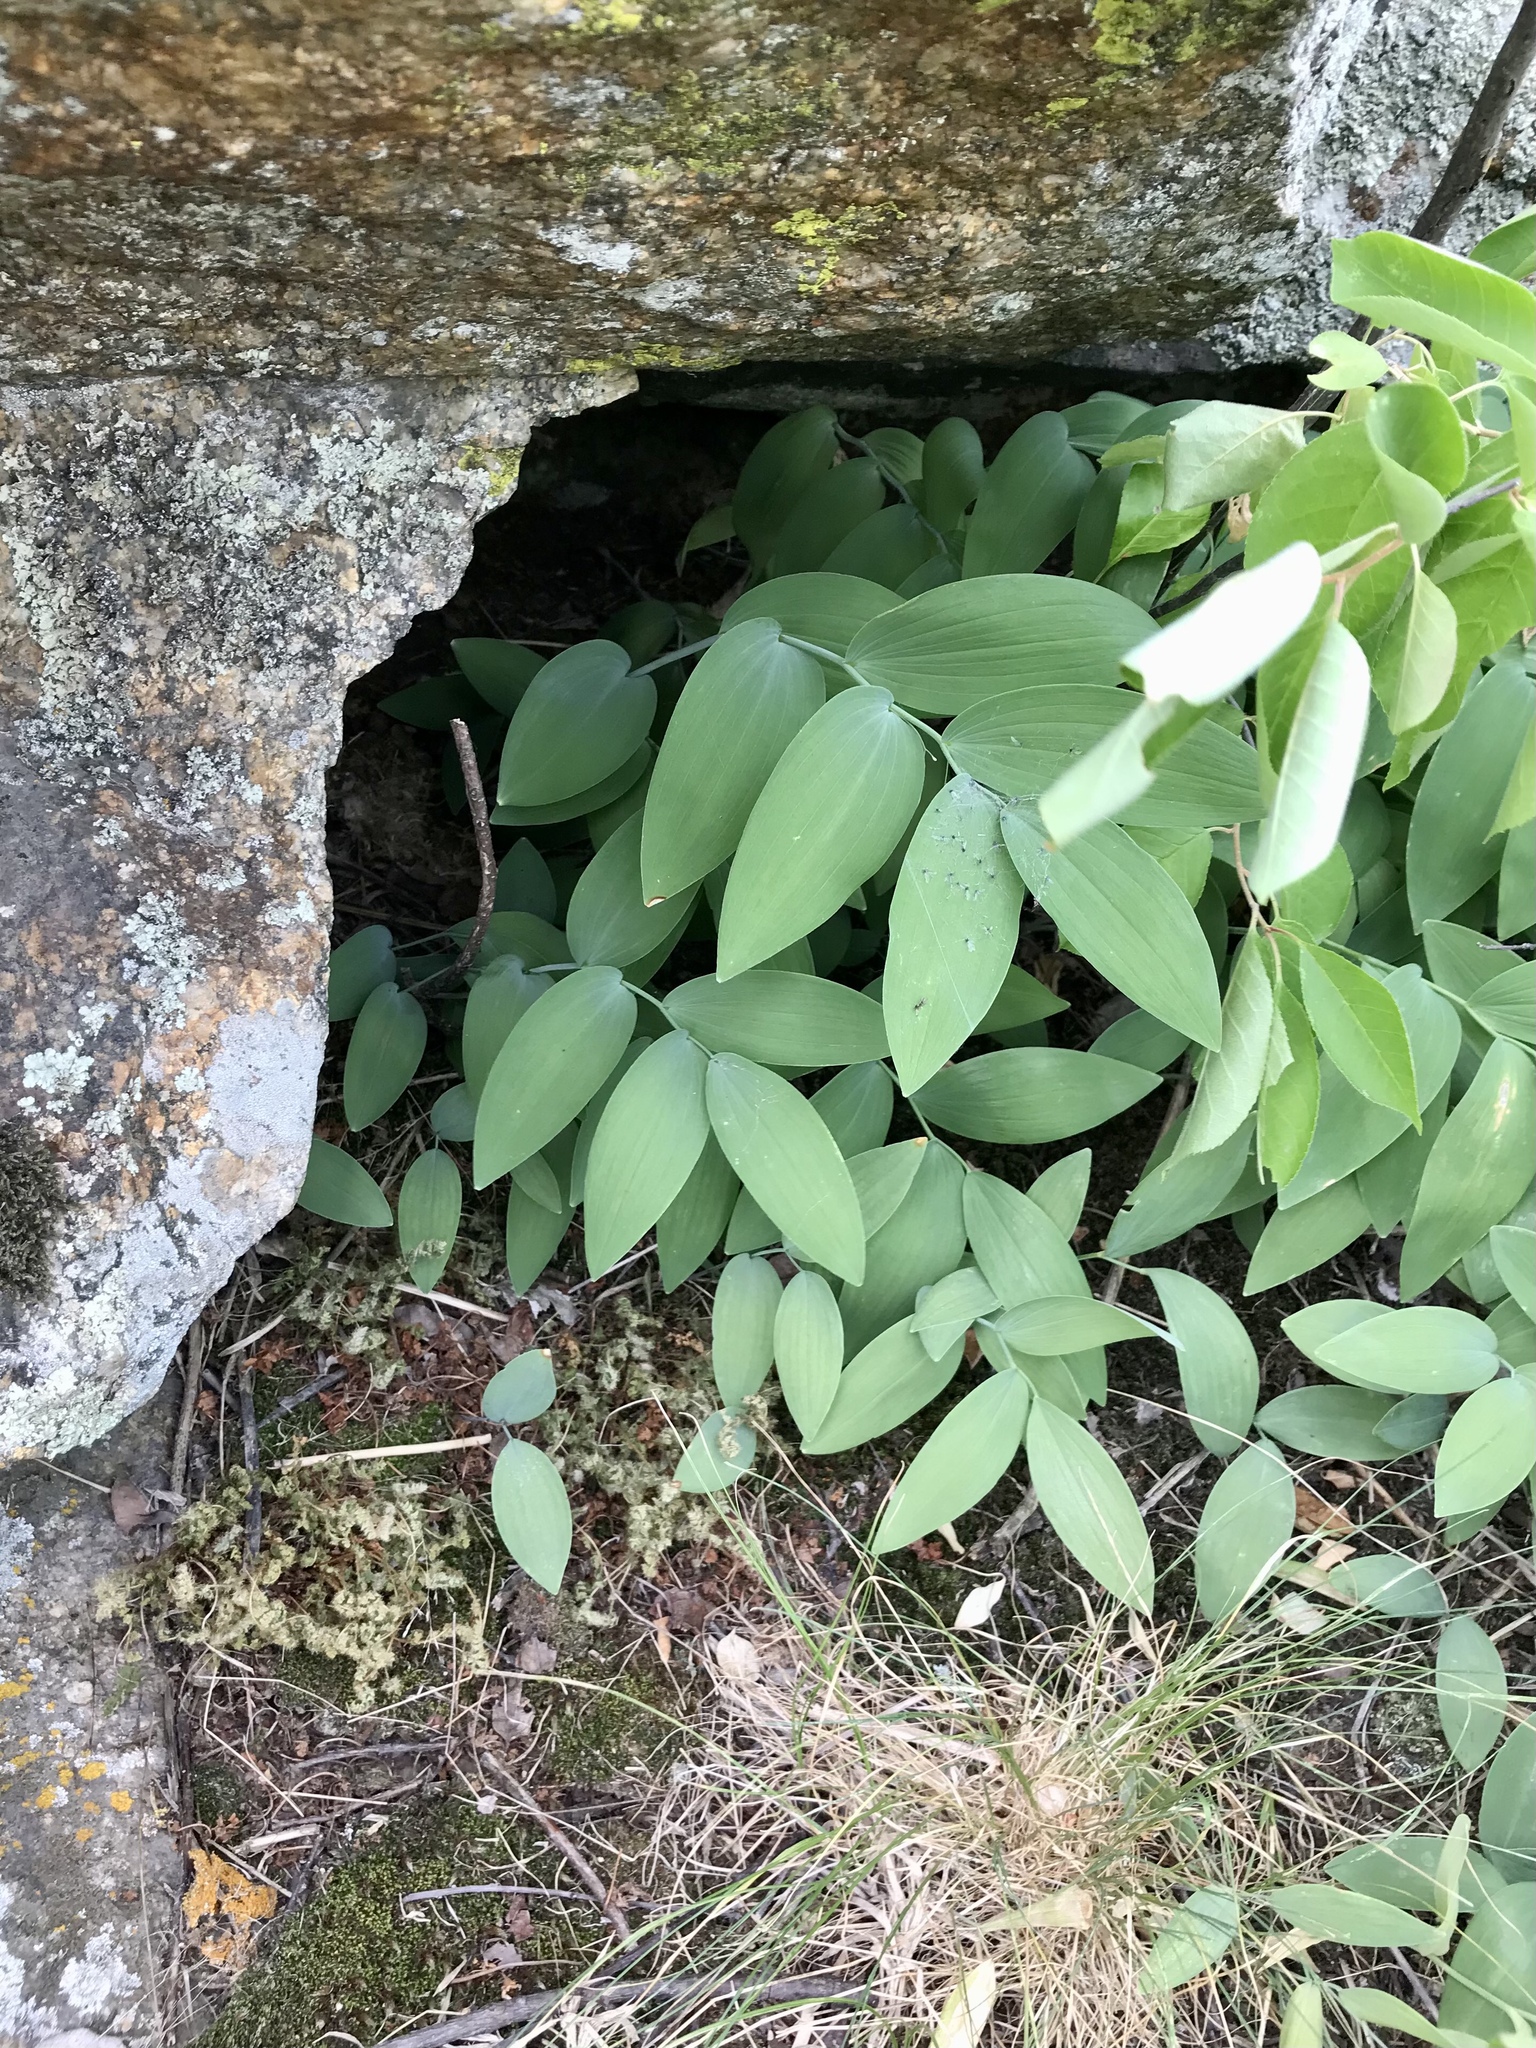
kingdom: Plantae
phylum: Tracheophyta
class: Liliopsida
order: Asparagales
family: Asparagaceae
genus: Polygonatum
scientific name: Polygonatum biflorum
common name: American solomon's-seal
